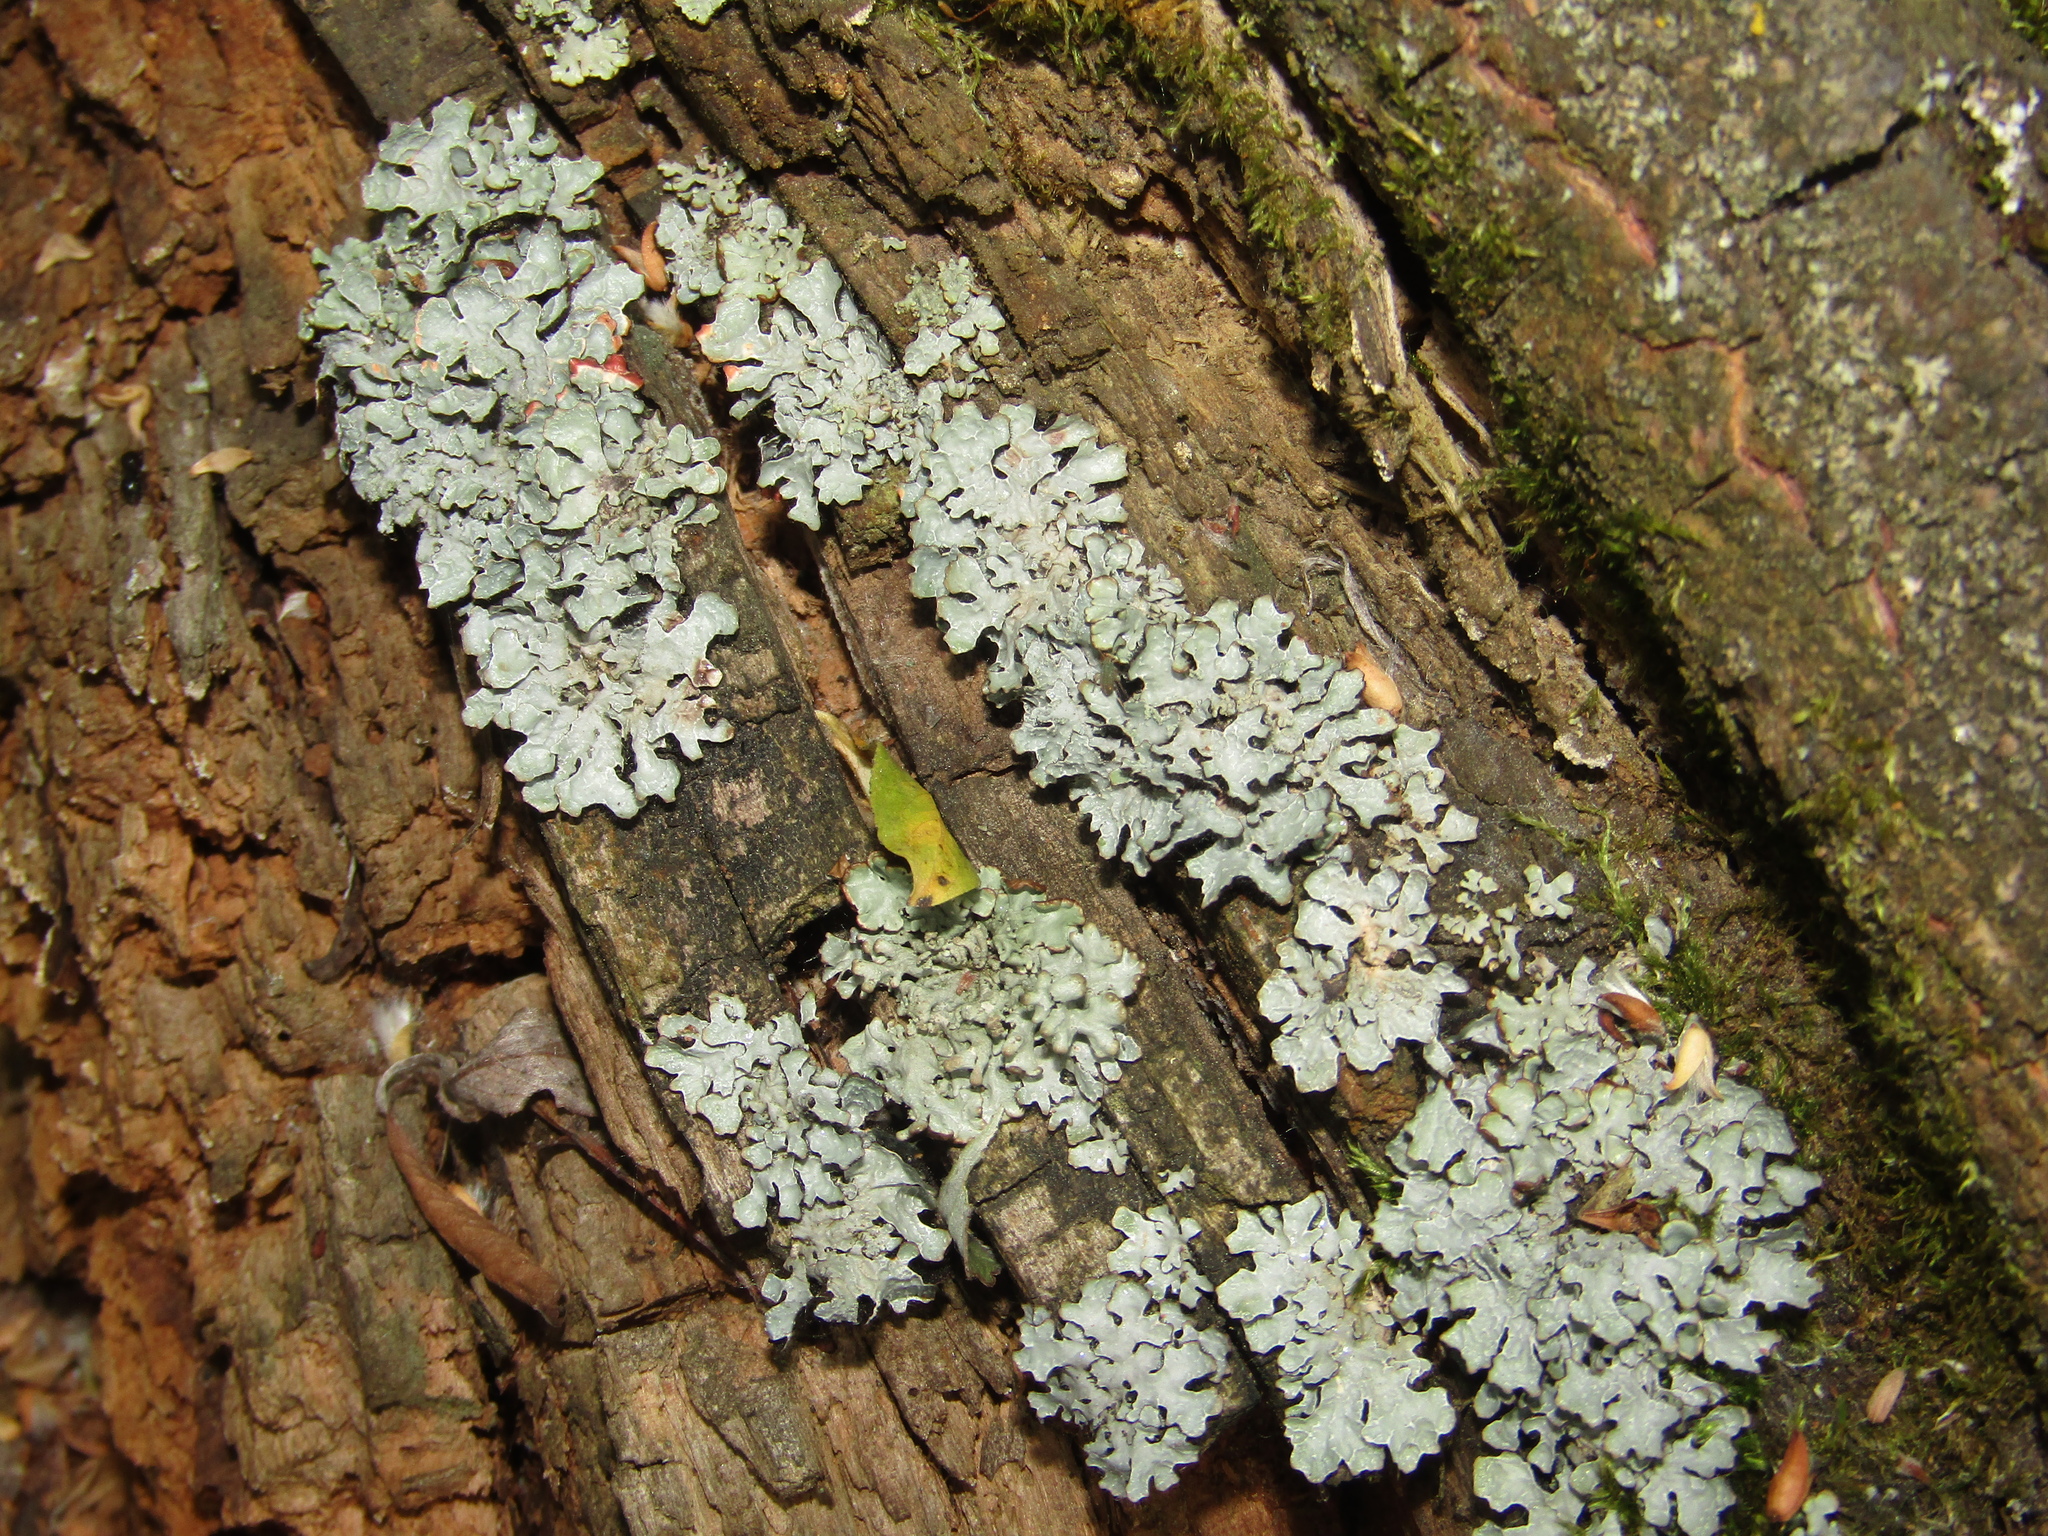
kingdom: Fungi
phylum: Ascomycota
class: Lecanoromycetes
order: Lecanorales
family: Parmeliaceae
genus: Parmelia
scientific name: Parmelia sulcata
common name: Netted shield lichen
